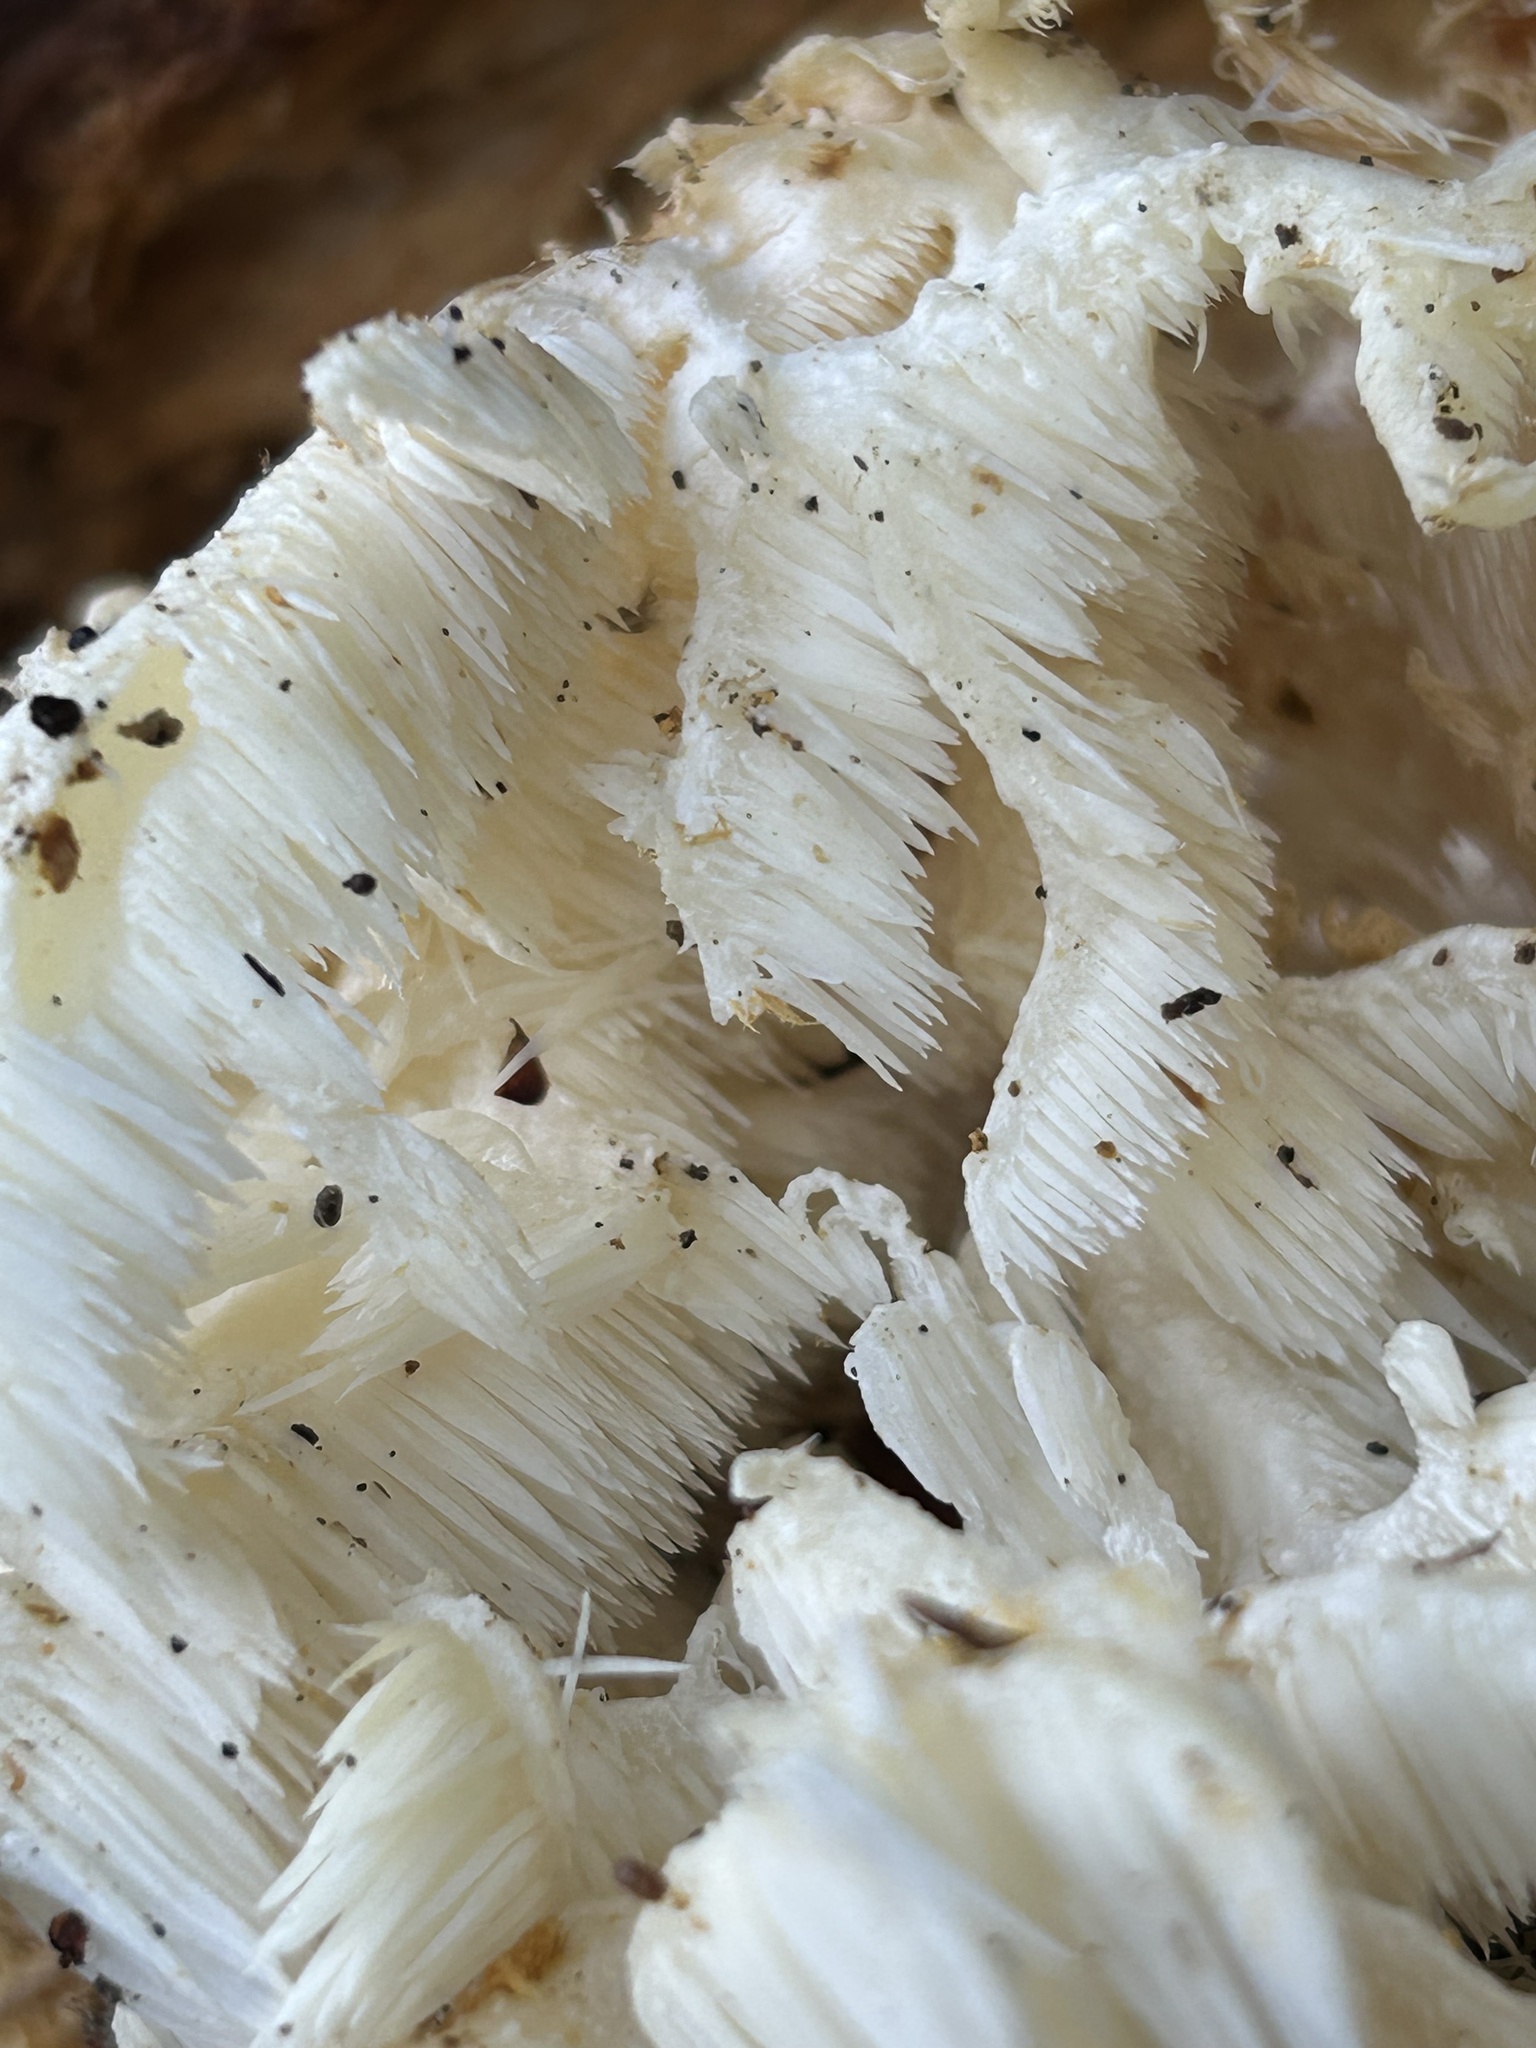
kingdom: Fungi
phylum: Basidiomycota
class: Agaricomycetes
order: Russulales
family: Hericiaceae
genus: Hericium
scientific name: Hericium coralloides
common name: Coral tooth
